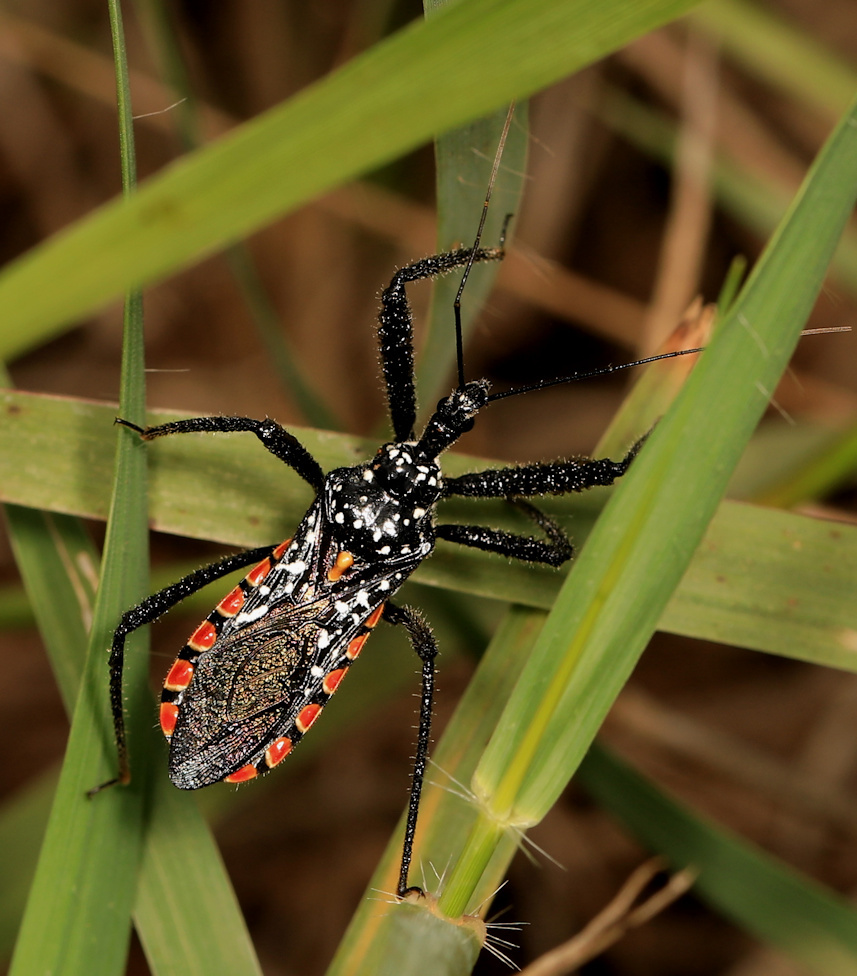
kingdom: Animalia
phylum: Arthropoda
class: Insecta
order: Hemiptera
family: Reduviidae
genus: Rhynocoris
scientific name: Rhynocoris albopunctatus
